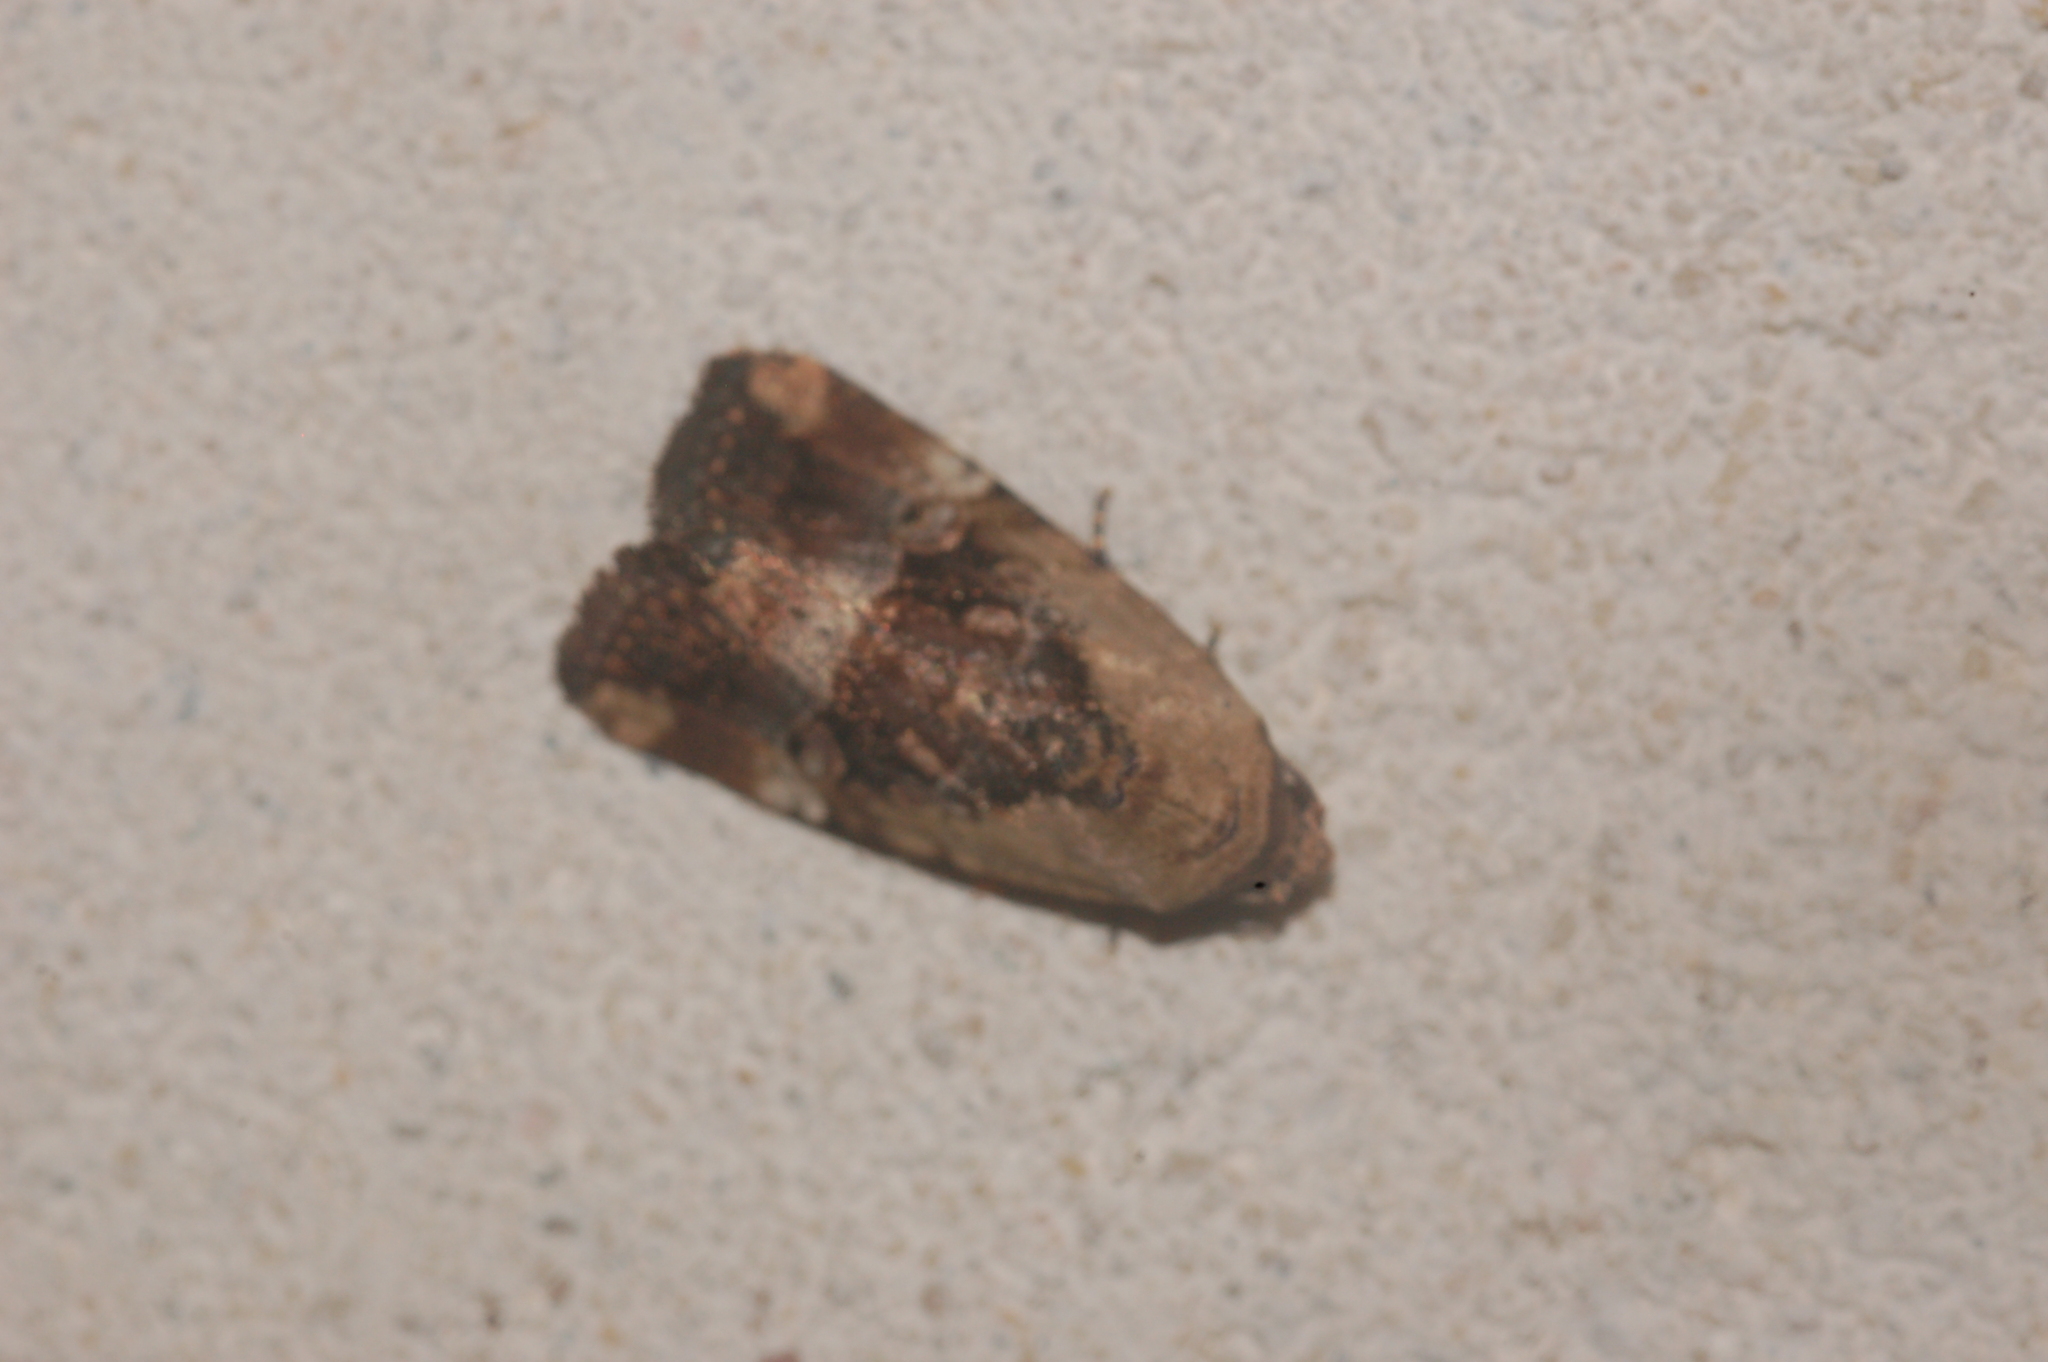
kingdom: Animalia
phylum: Arthropoda
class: Insecta
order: Lepidoptera
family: Noctuidae
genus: Elaphria
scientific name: Elaphria chalcedonia
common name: Chalcedony midget
